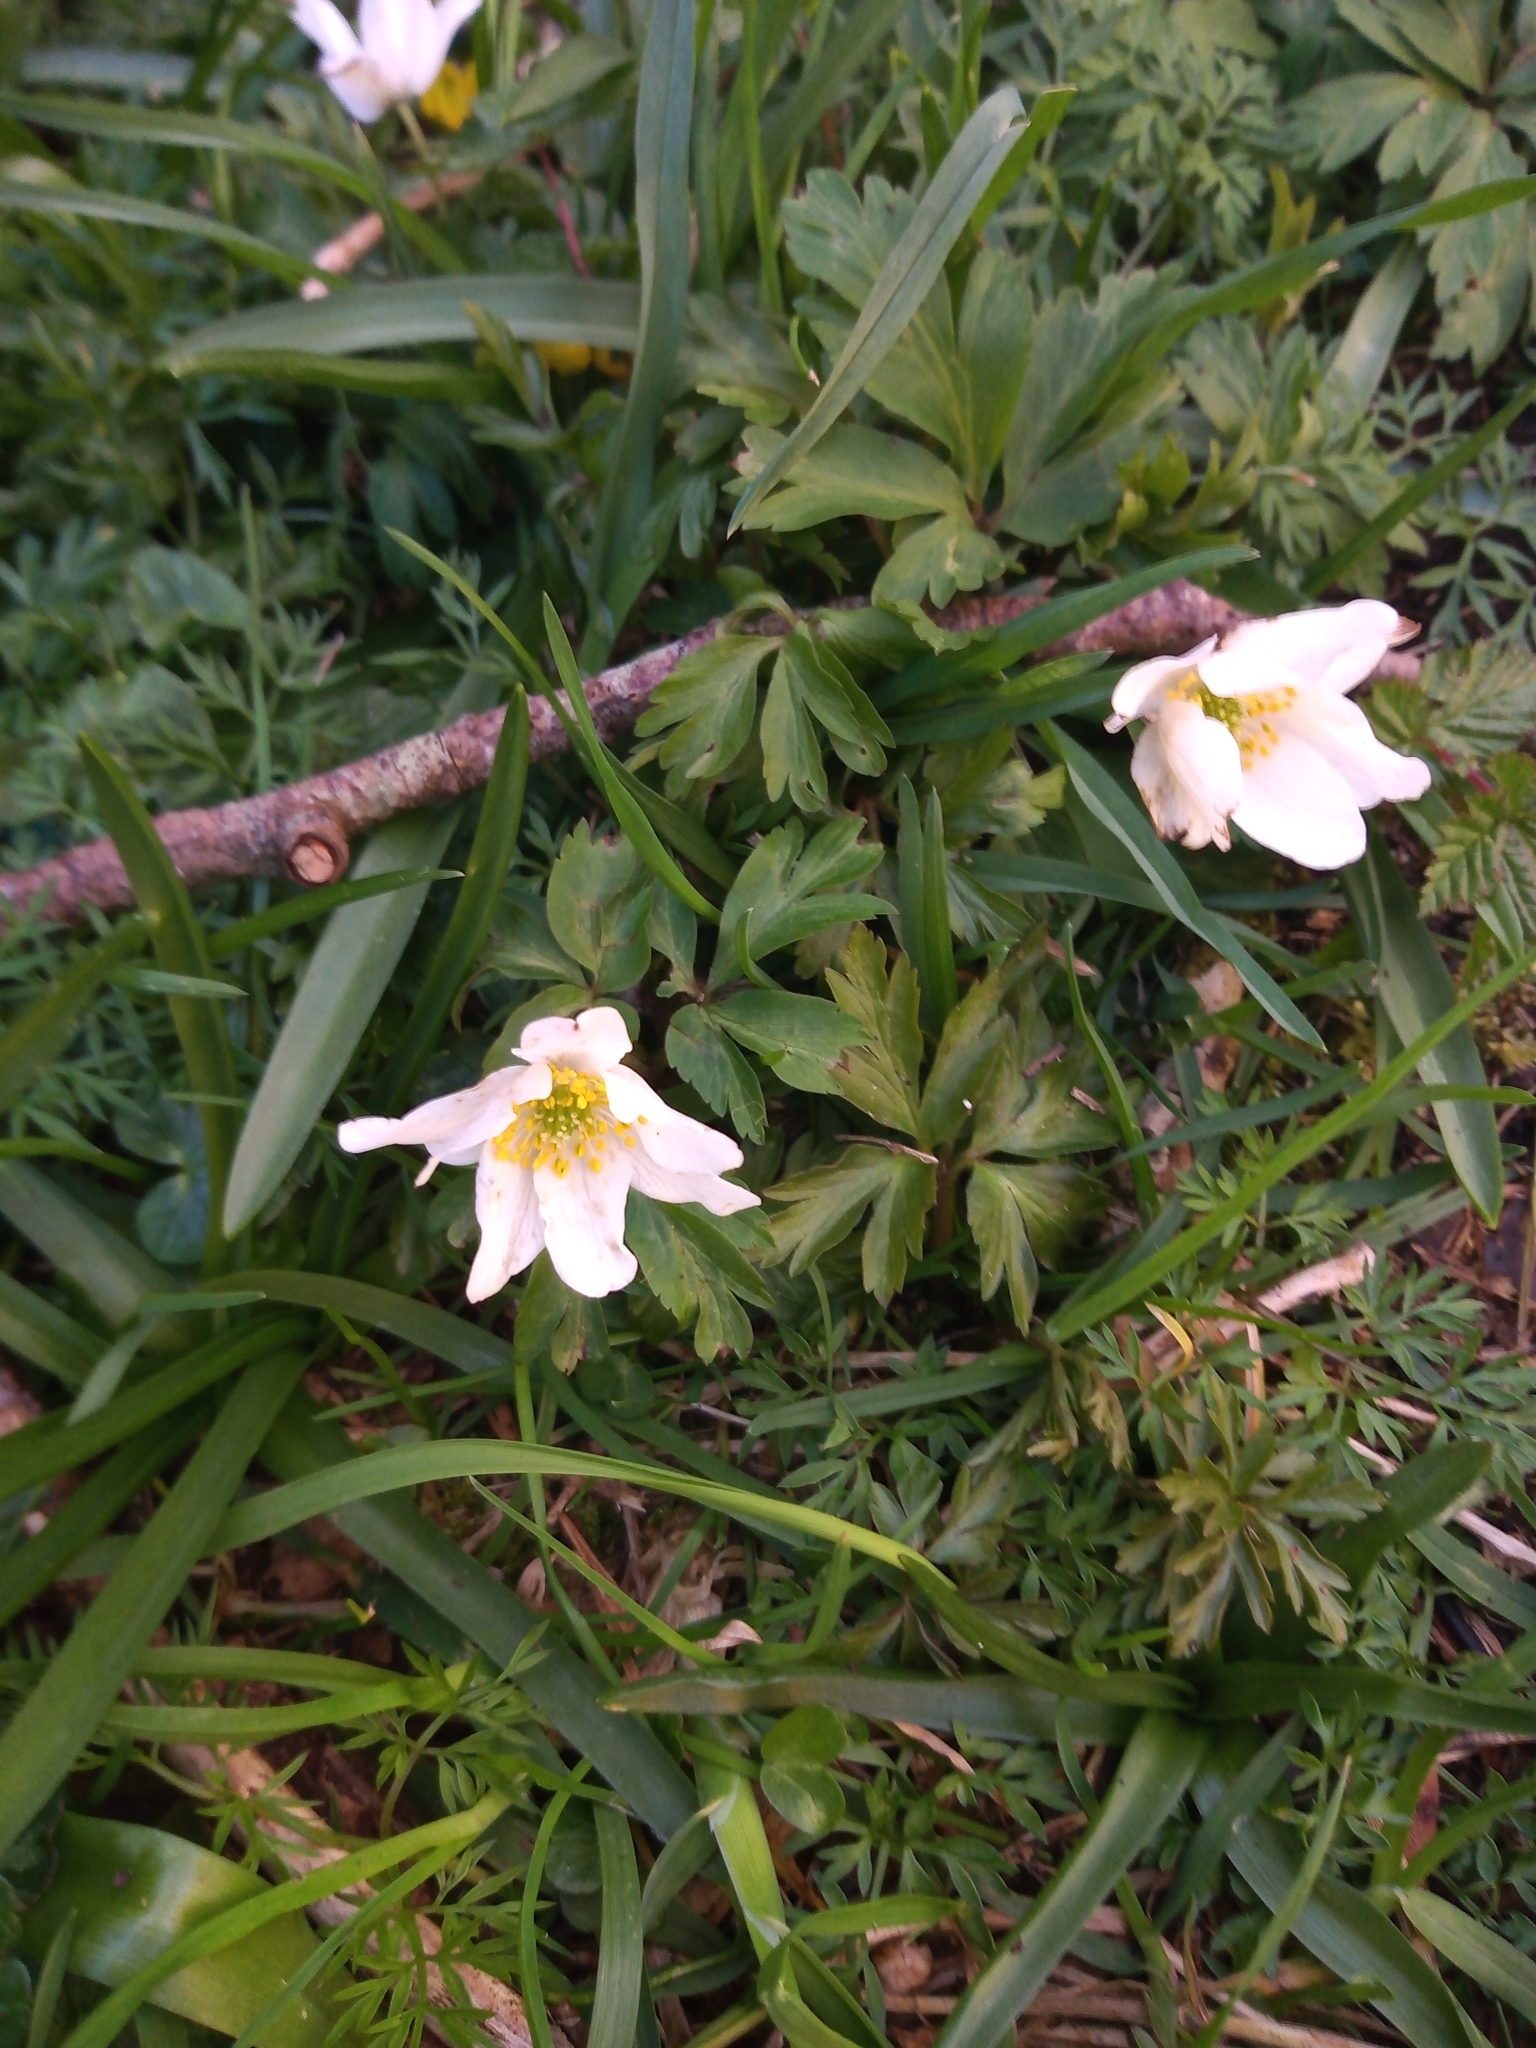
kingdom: Plantae
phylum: Tracheophyta
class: Magnoliopsida
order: Ranunculales
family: Ranunculaceae
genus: Anemone
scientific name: Anemone nemorosa
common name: Wood anemone
